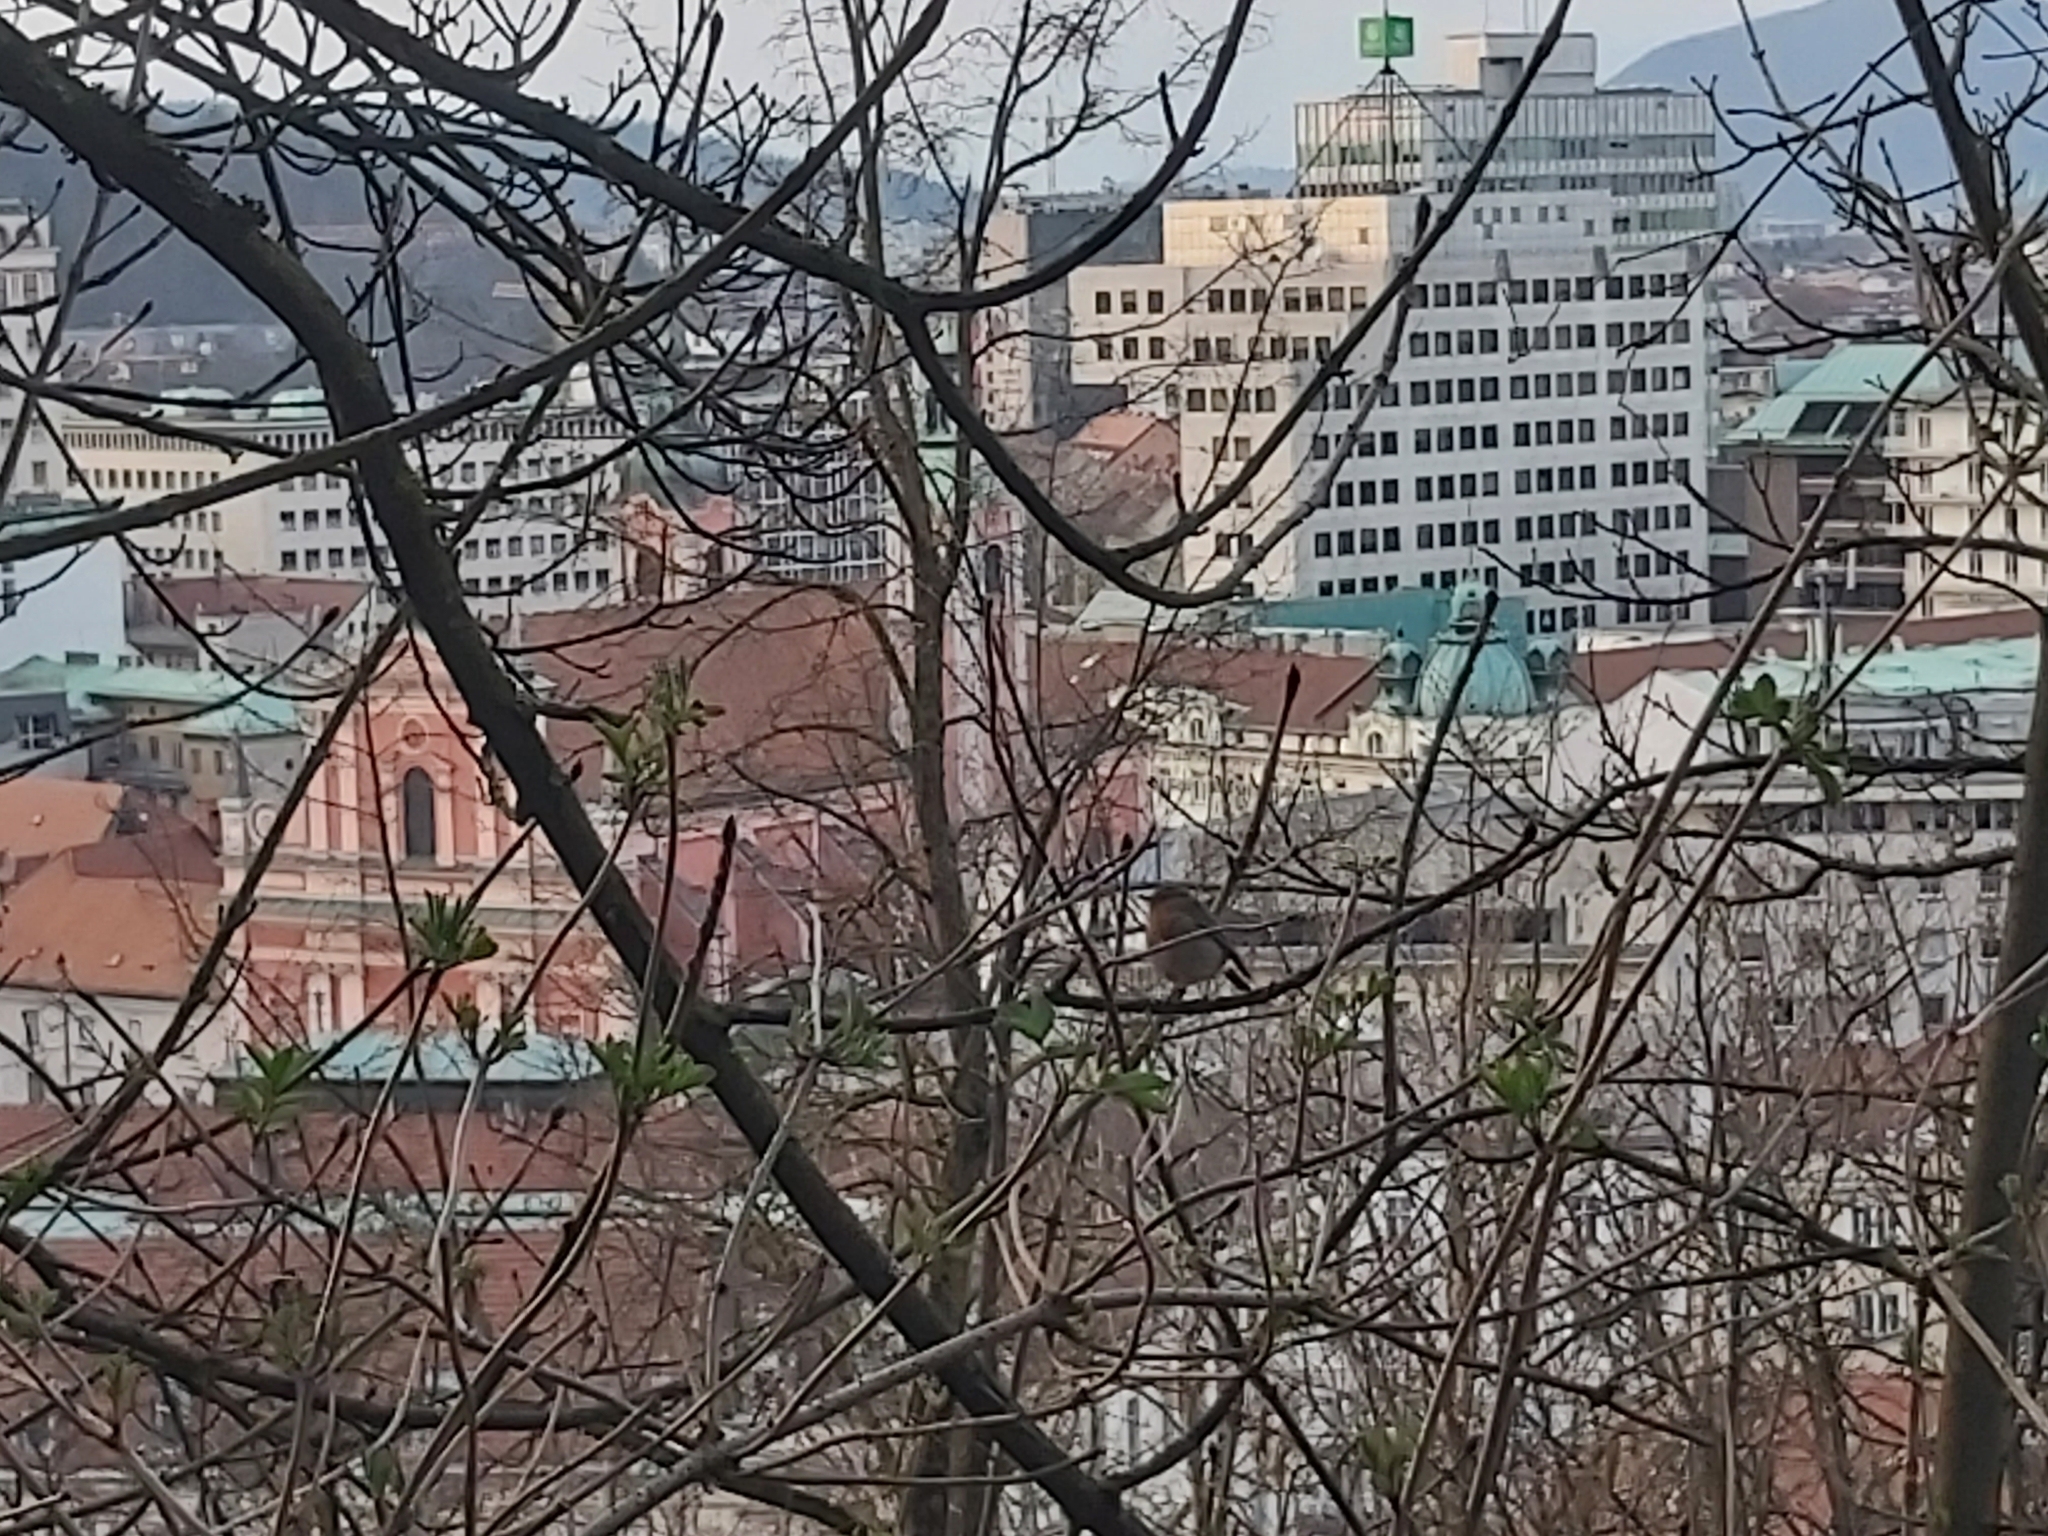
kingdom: Animalia
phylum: Chordata
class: Aves
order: Passeriformes
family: Muscicapidae
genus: Erithacus
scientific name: Erithacus rubecula
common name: European robin
